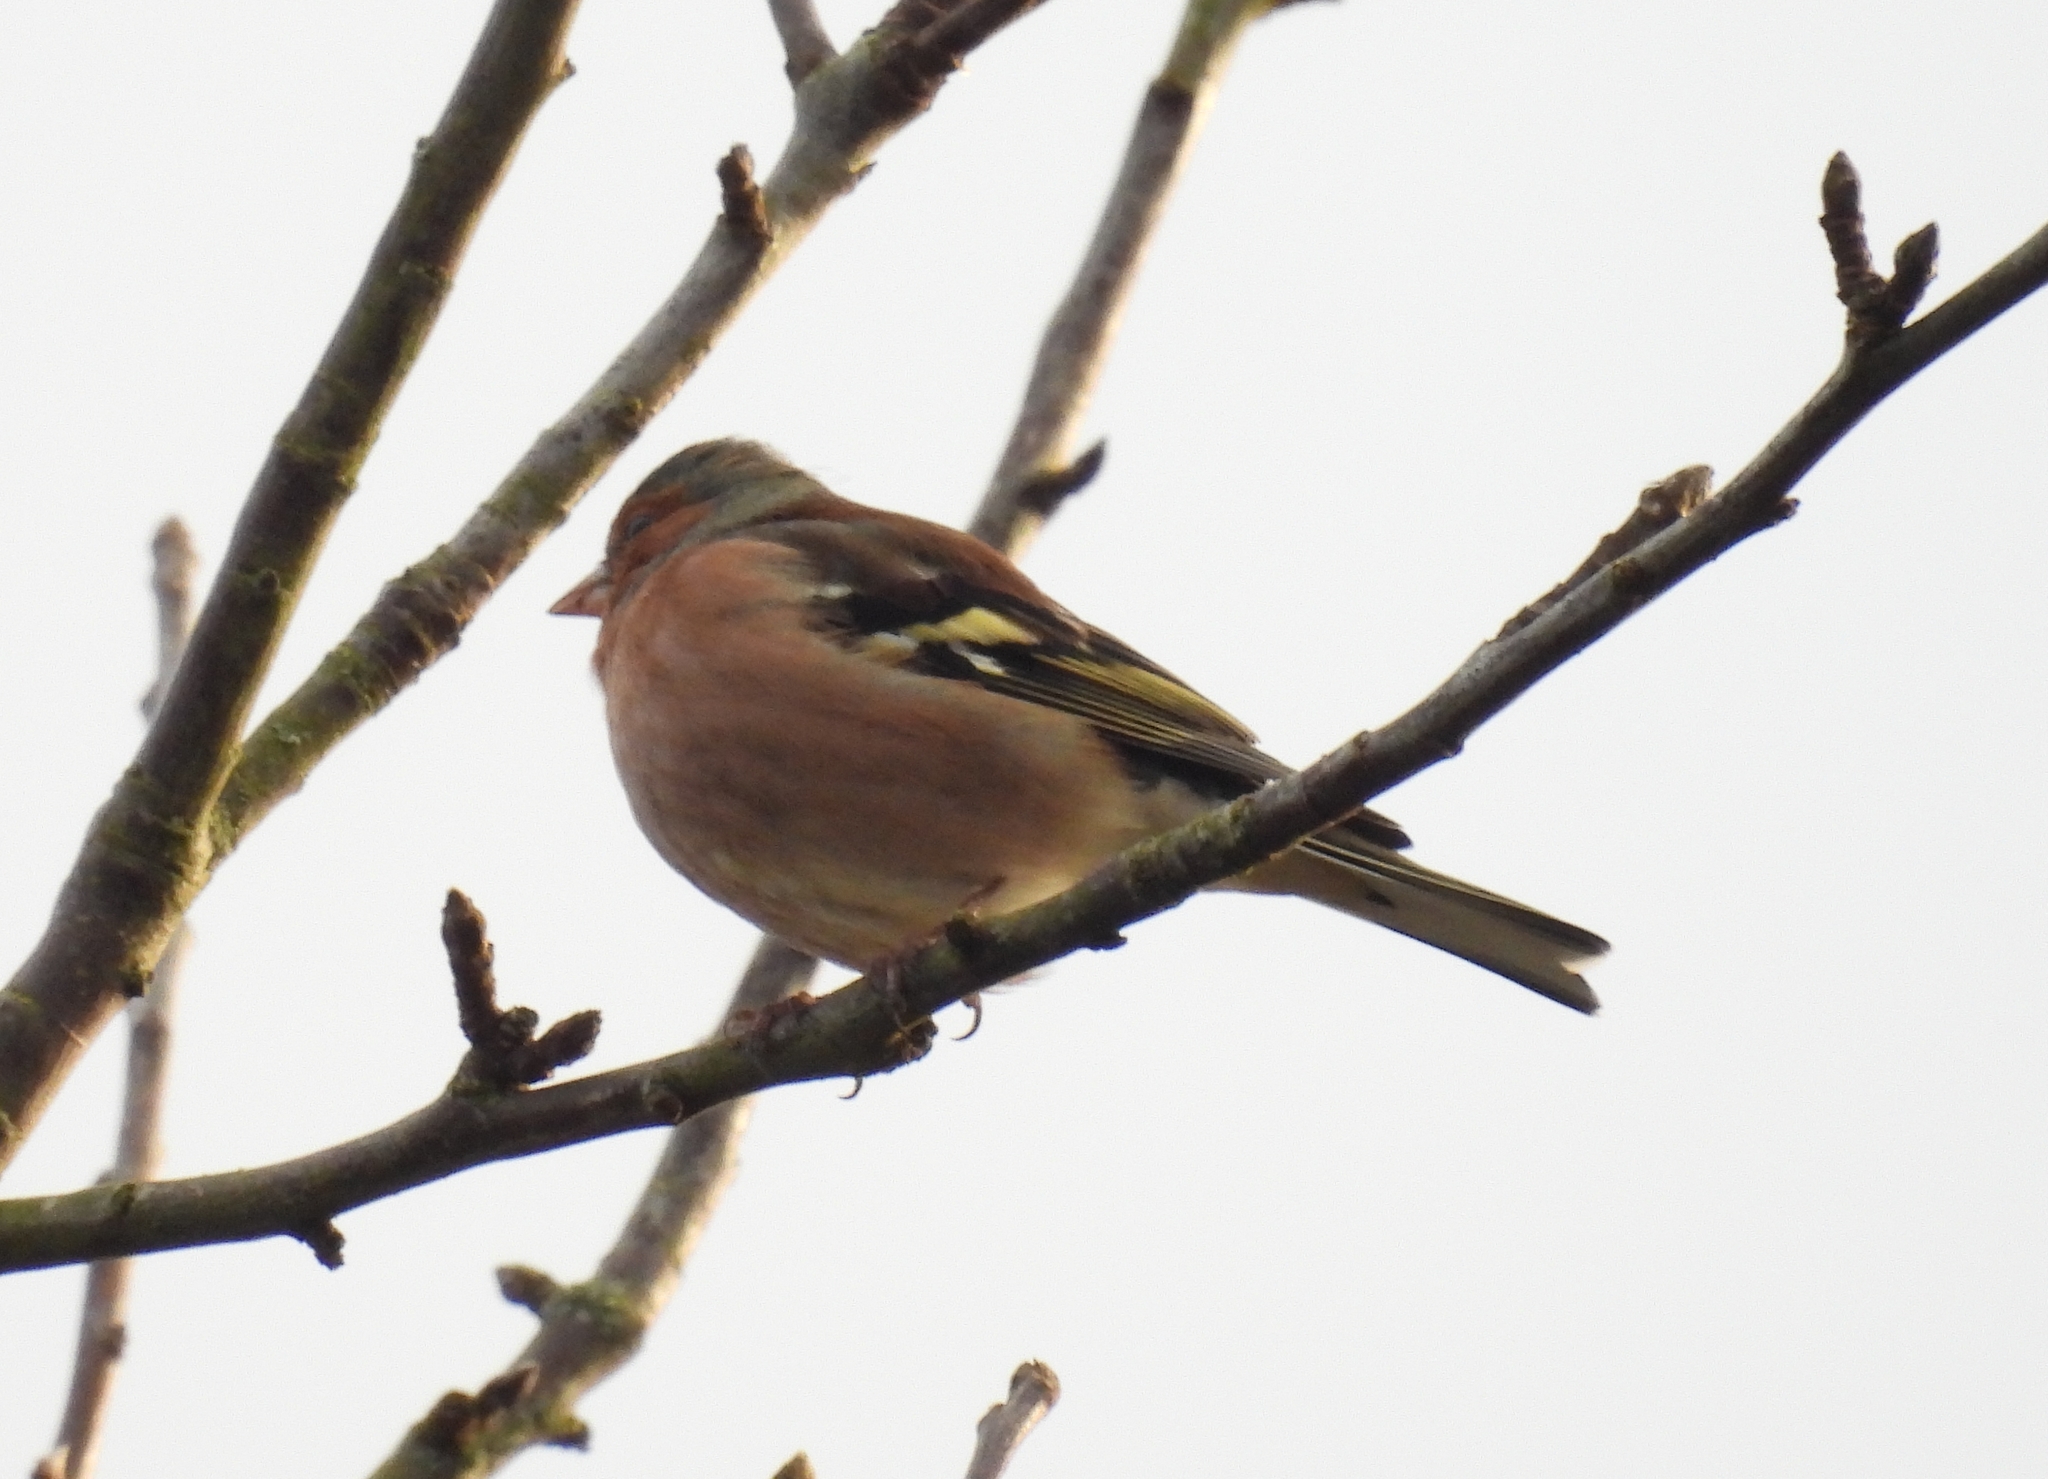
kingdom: Animalia
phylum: Chordata
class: Aves
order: Passeriformes
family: Fringillidae
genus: Fringilla
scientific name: Fringilla coelebs
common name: Common chaffinch
